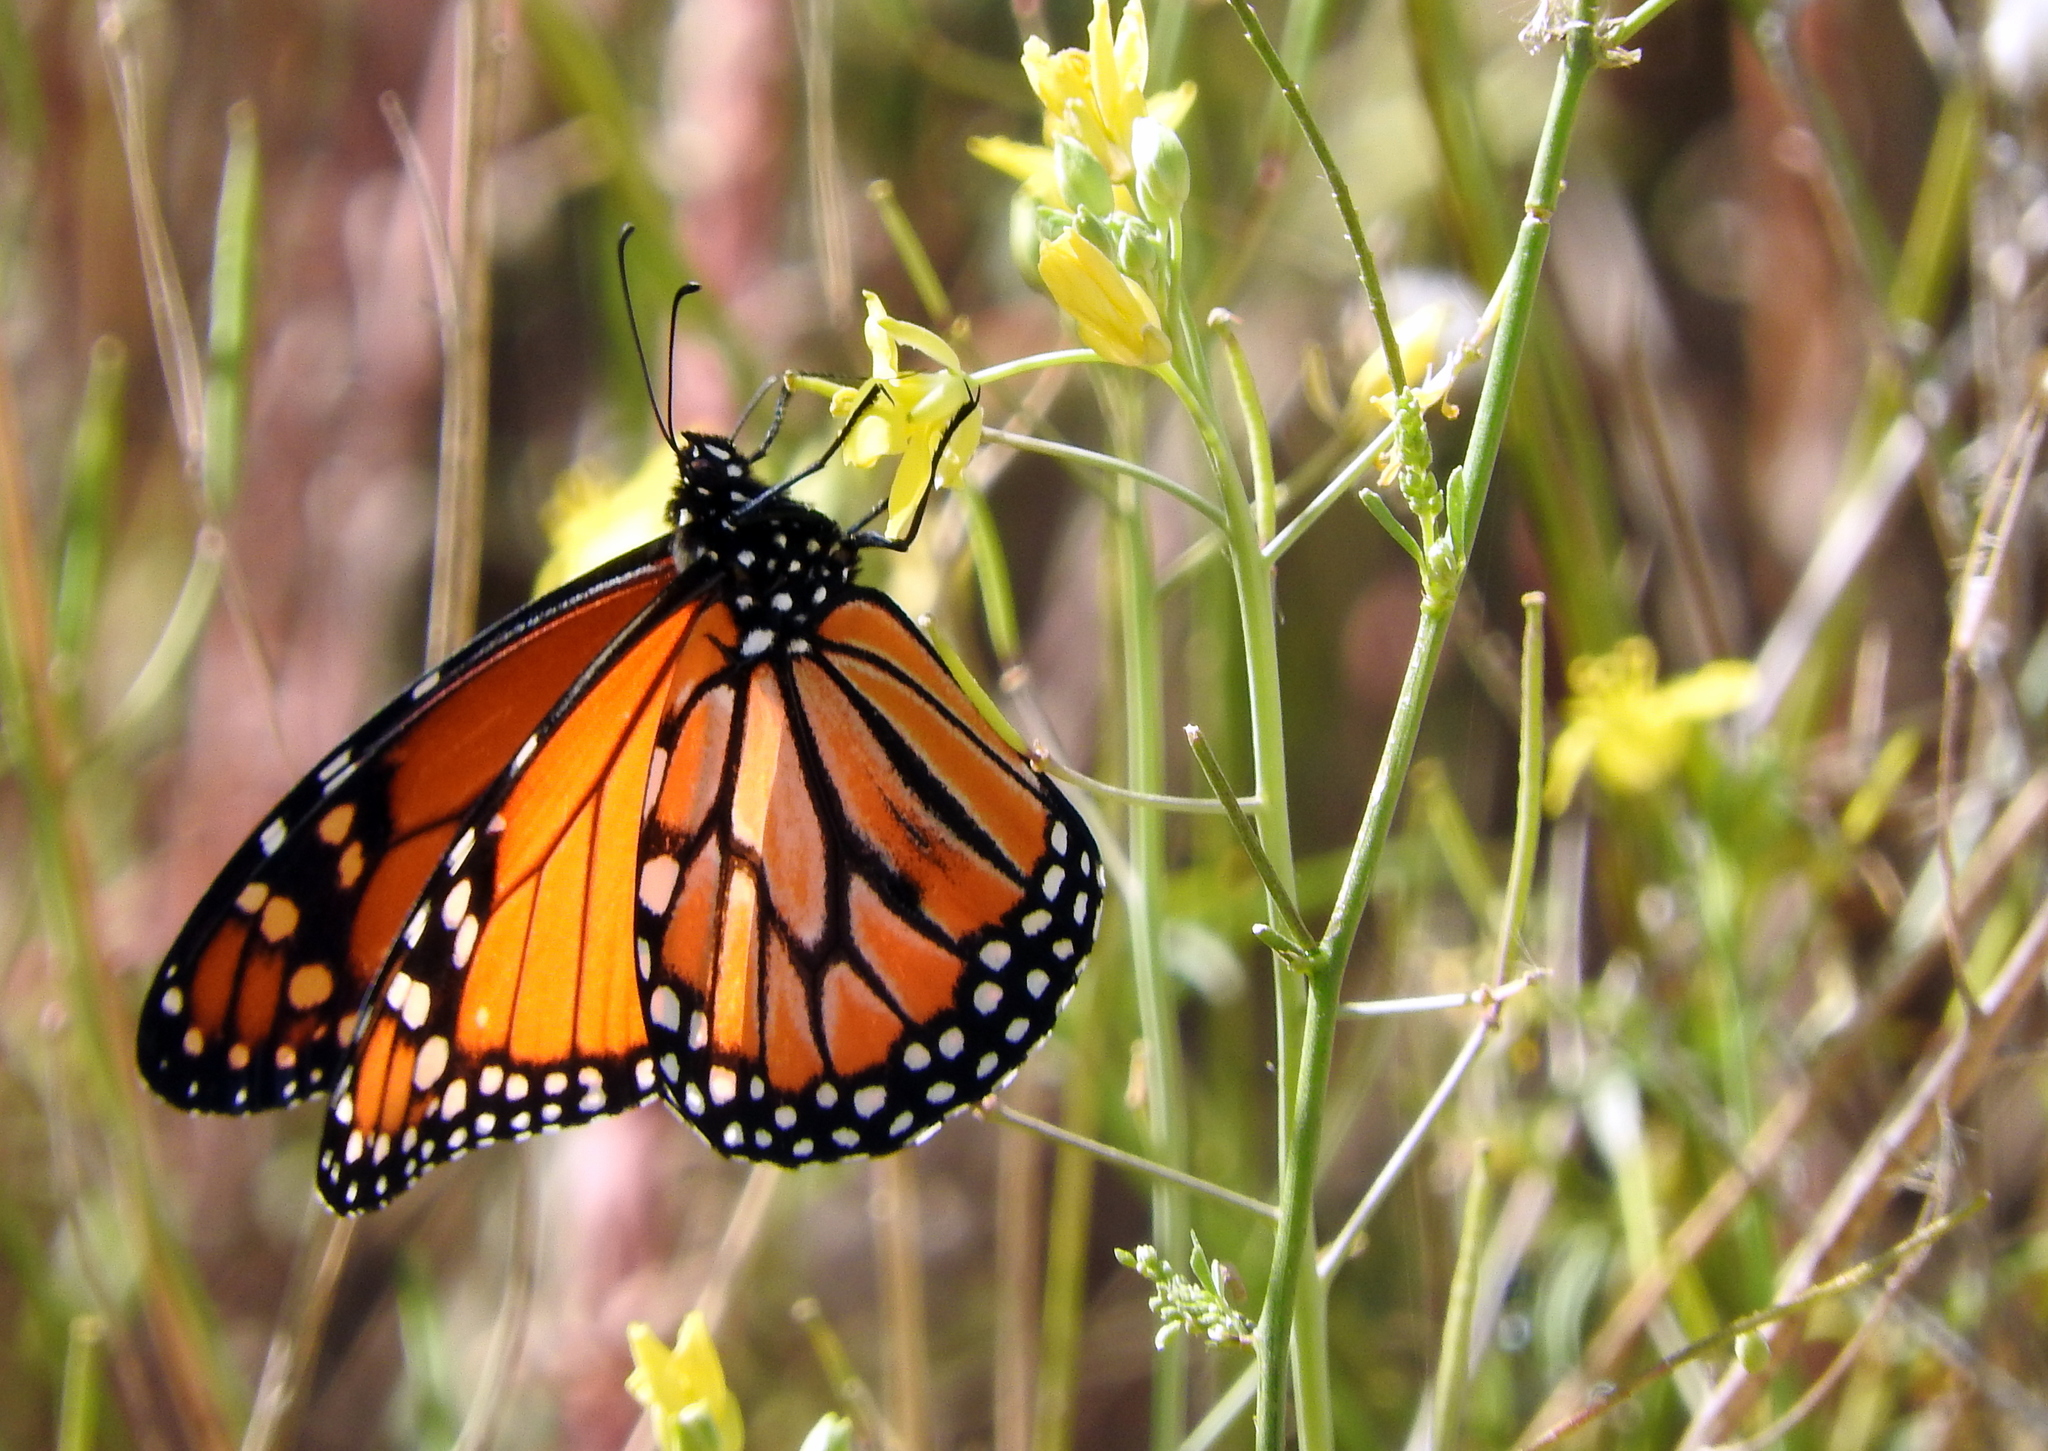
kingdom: Animalia
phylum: Arthropoda
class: Insecta
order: Lepidoptera
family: Nymphalidae
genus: Danaus
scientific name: Danaus erippus
